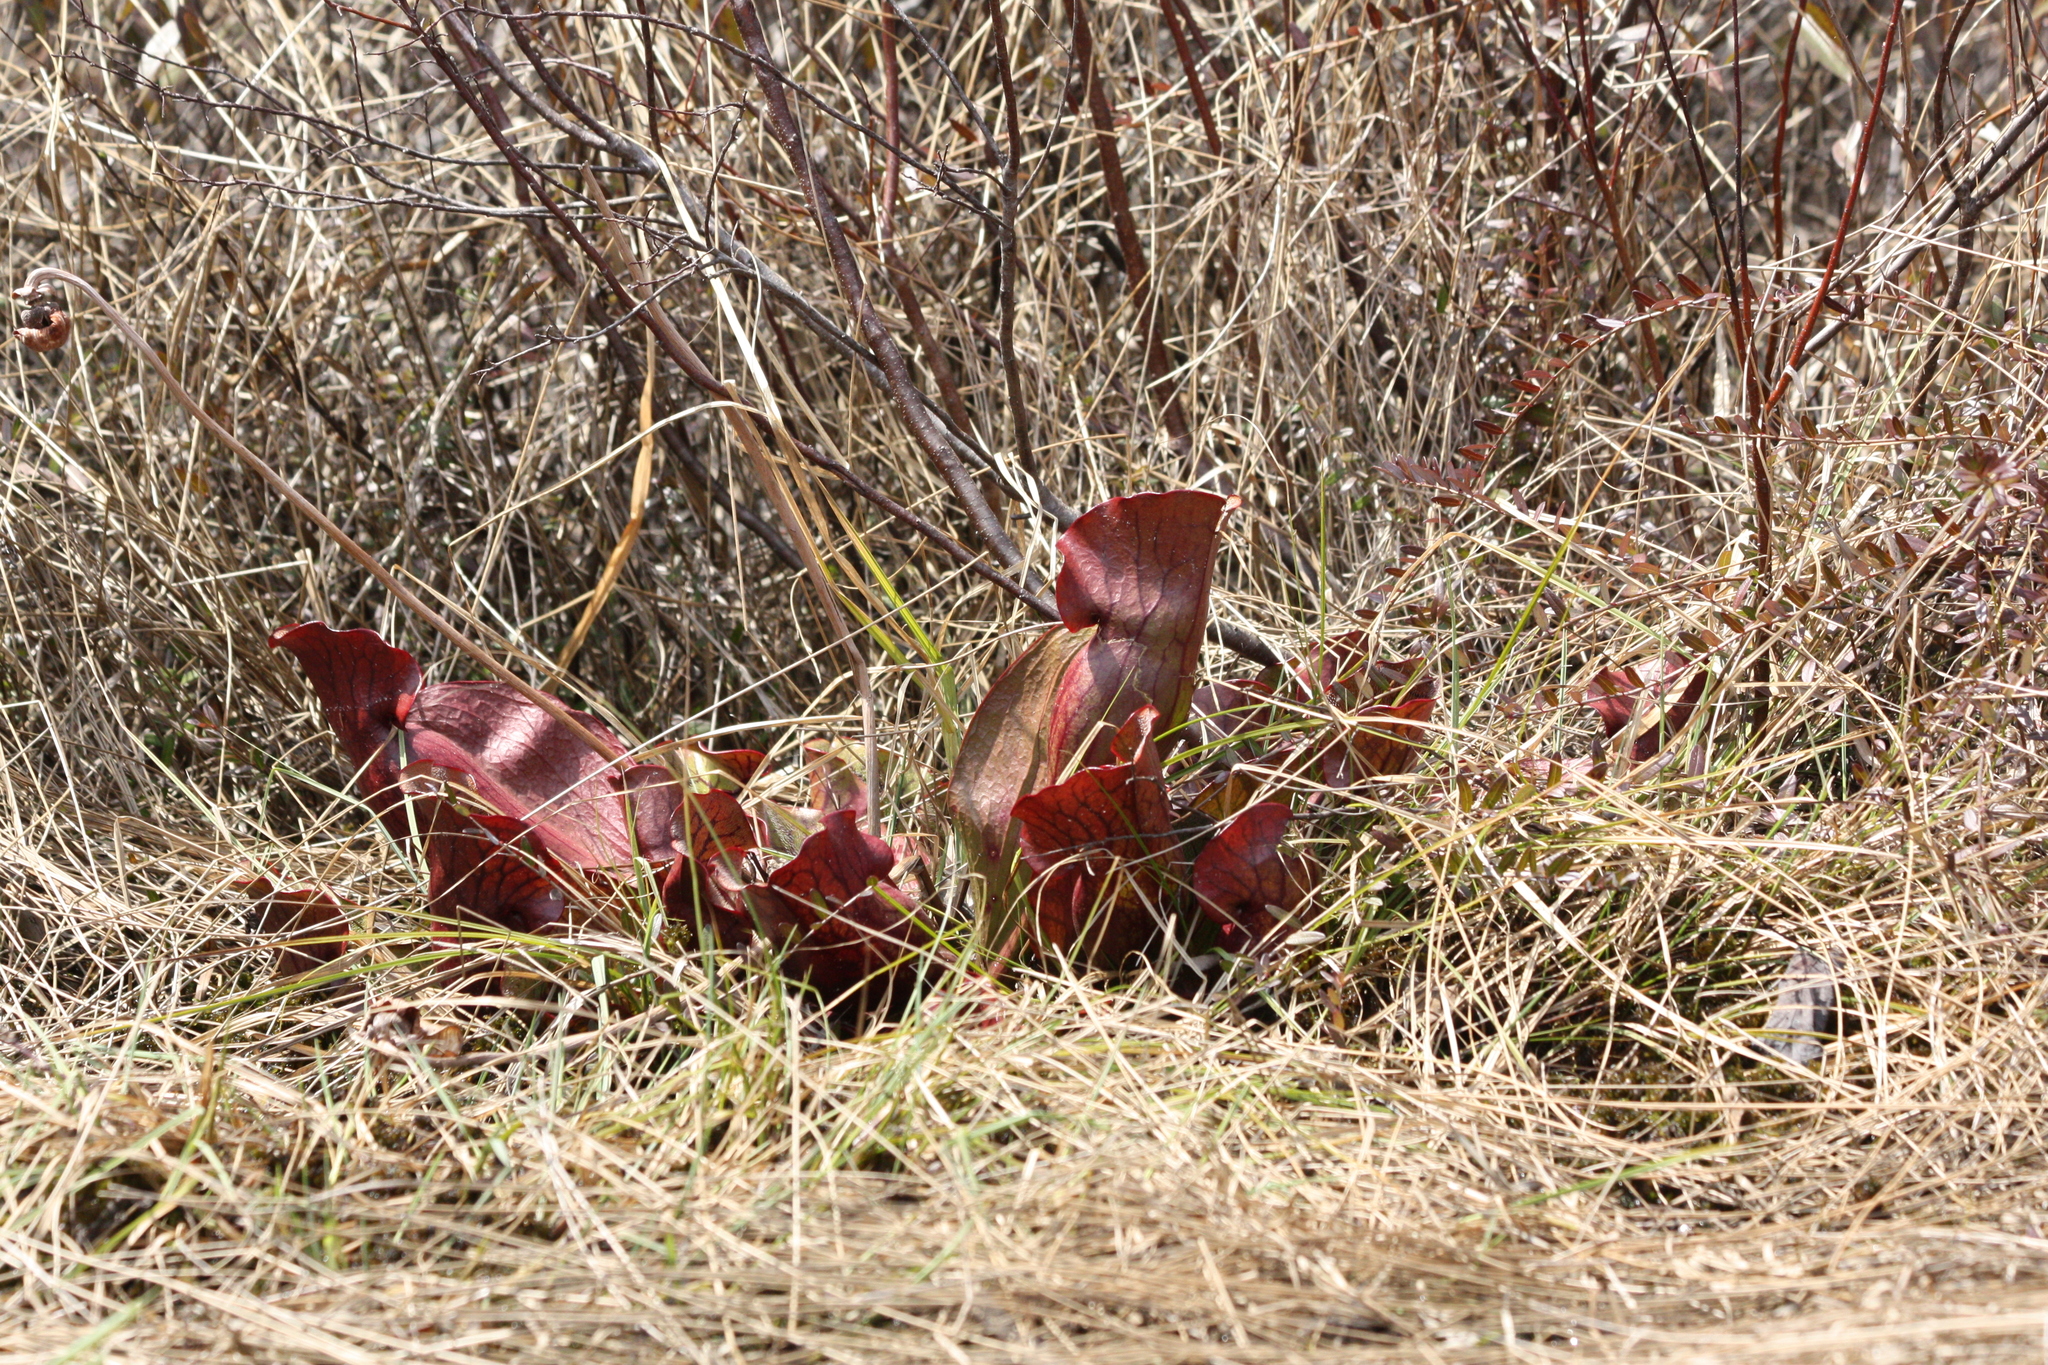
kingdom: Plantae
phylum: Tracheophyta
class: Magnoliopsida
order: Ericales
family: Sarraceniaceae
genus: Sarracenia
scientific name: Sarracenia purpurea
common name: Pitcherplant
